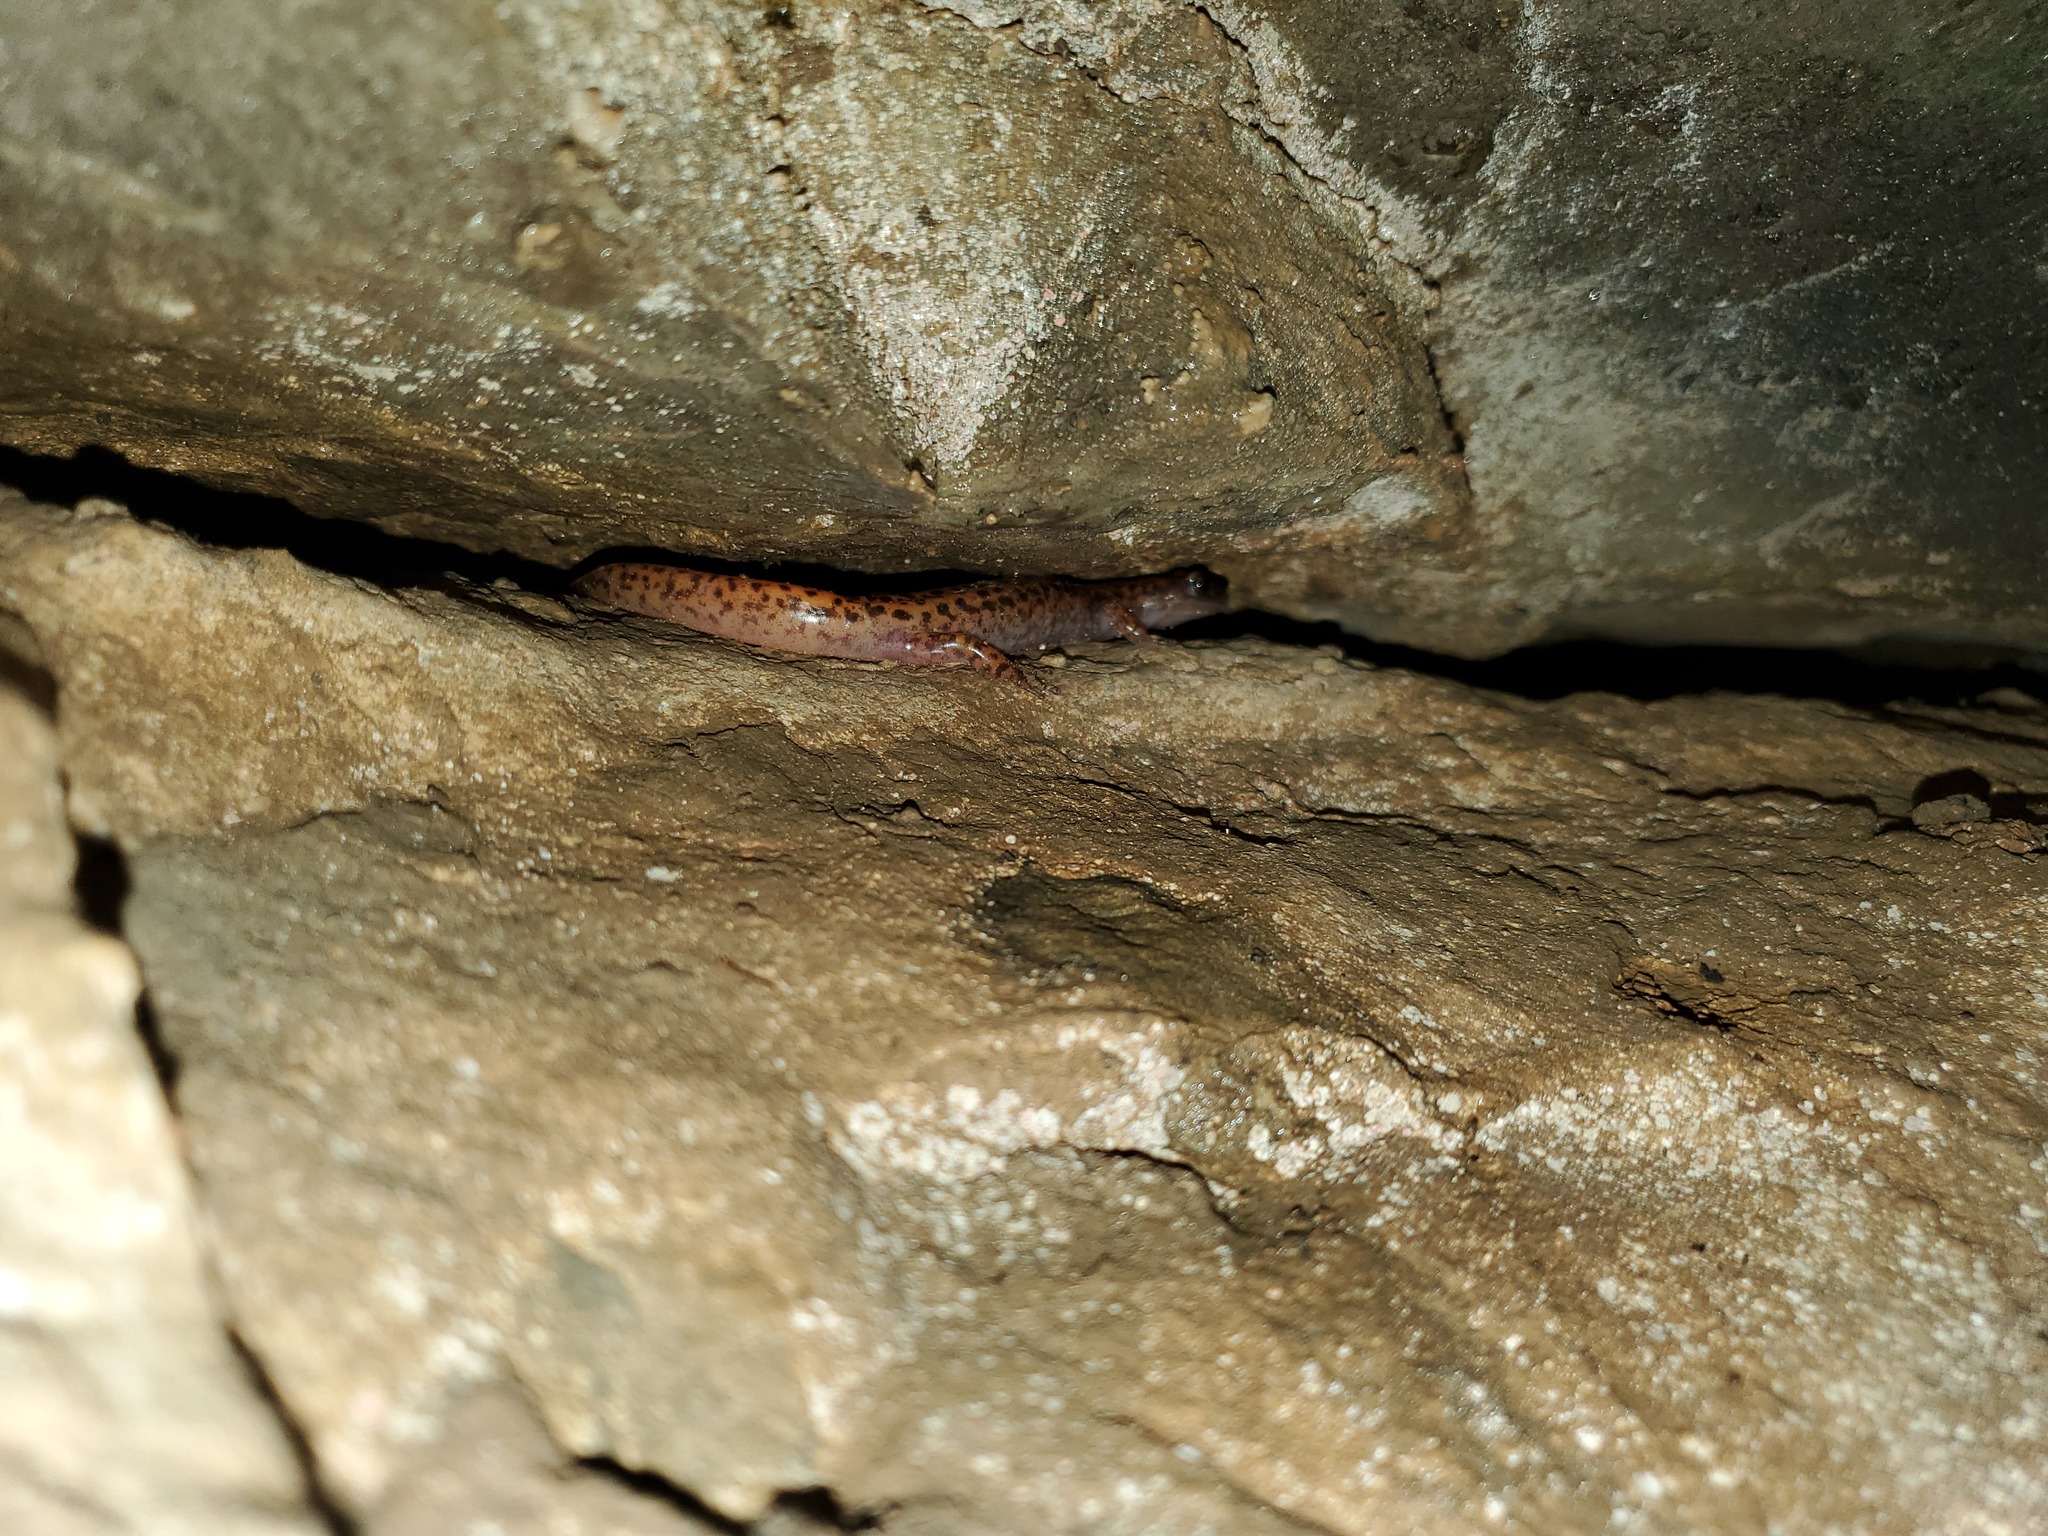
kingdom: Animalia
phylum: Chordata
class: Amphibia
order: Caudata
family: Plethodontidae
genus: Eurycea
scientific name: Eurycea lucifuga
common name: Cave salamander
